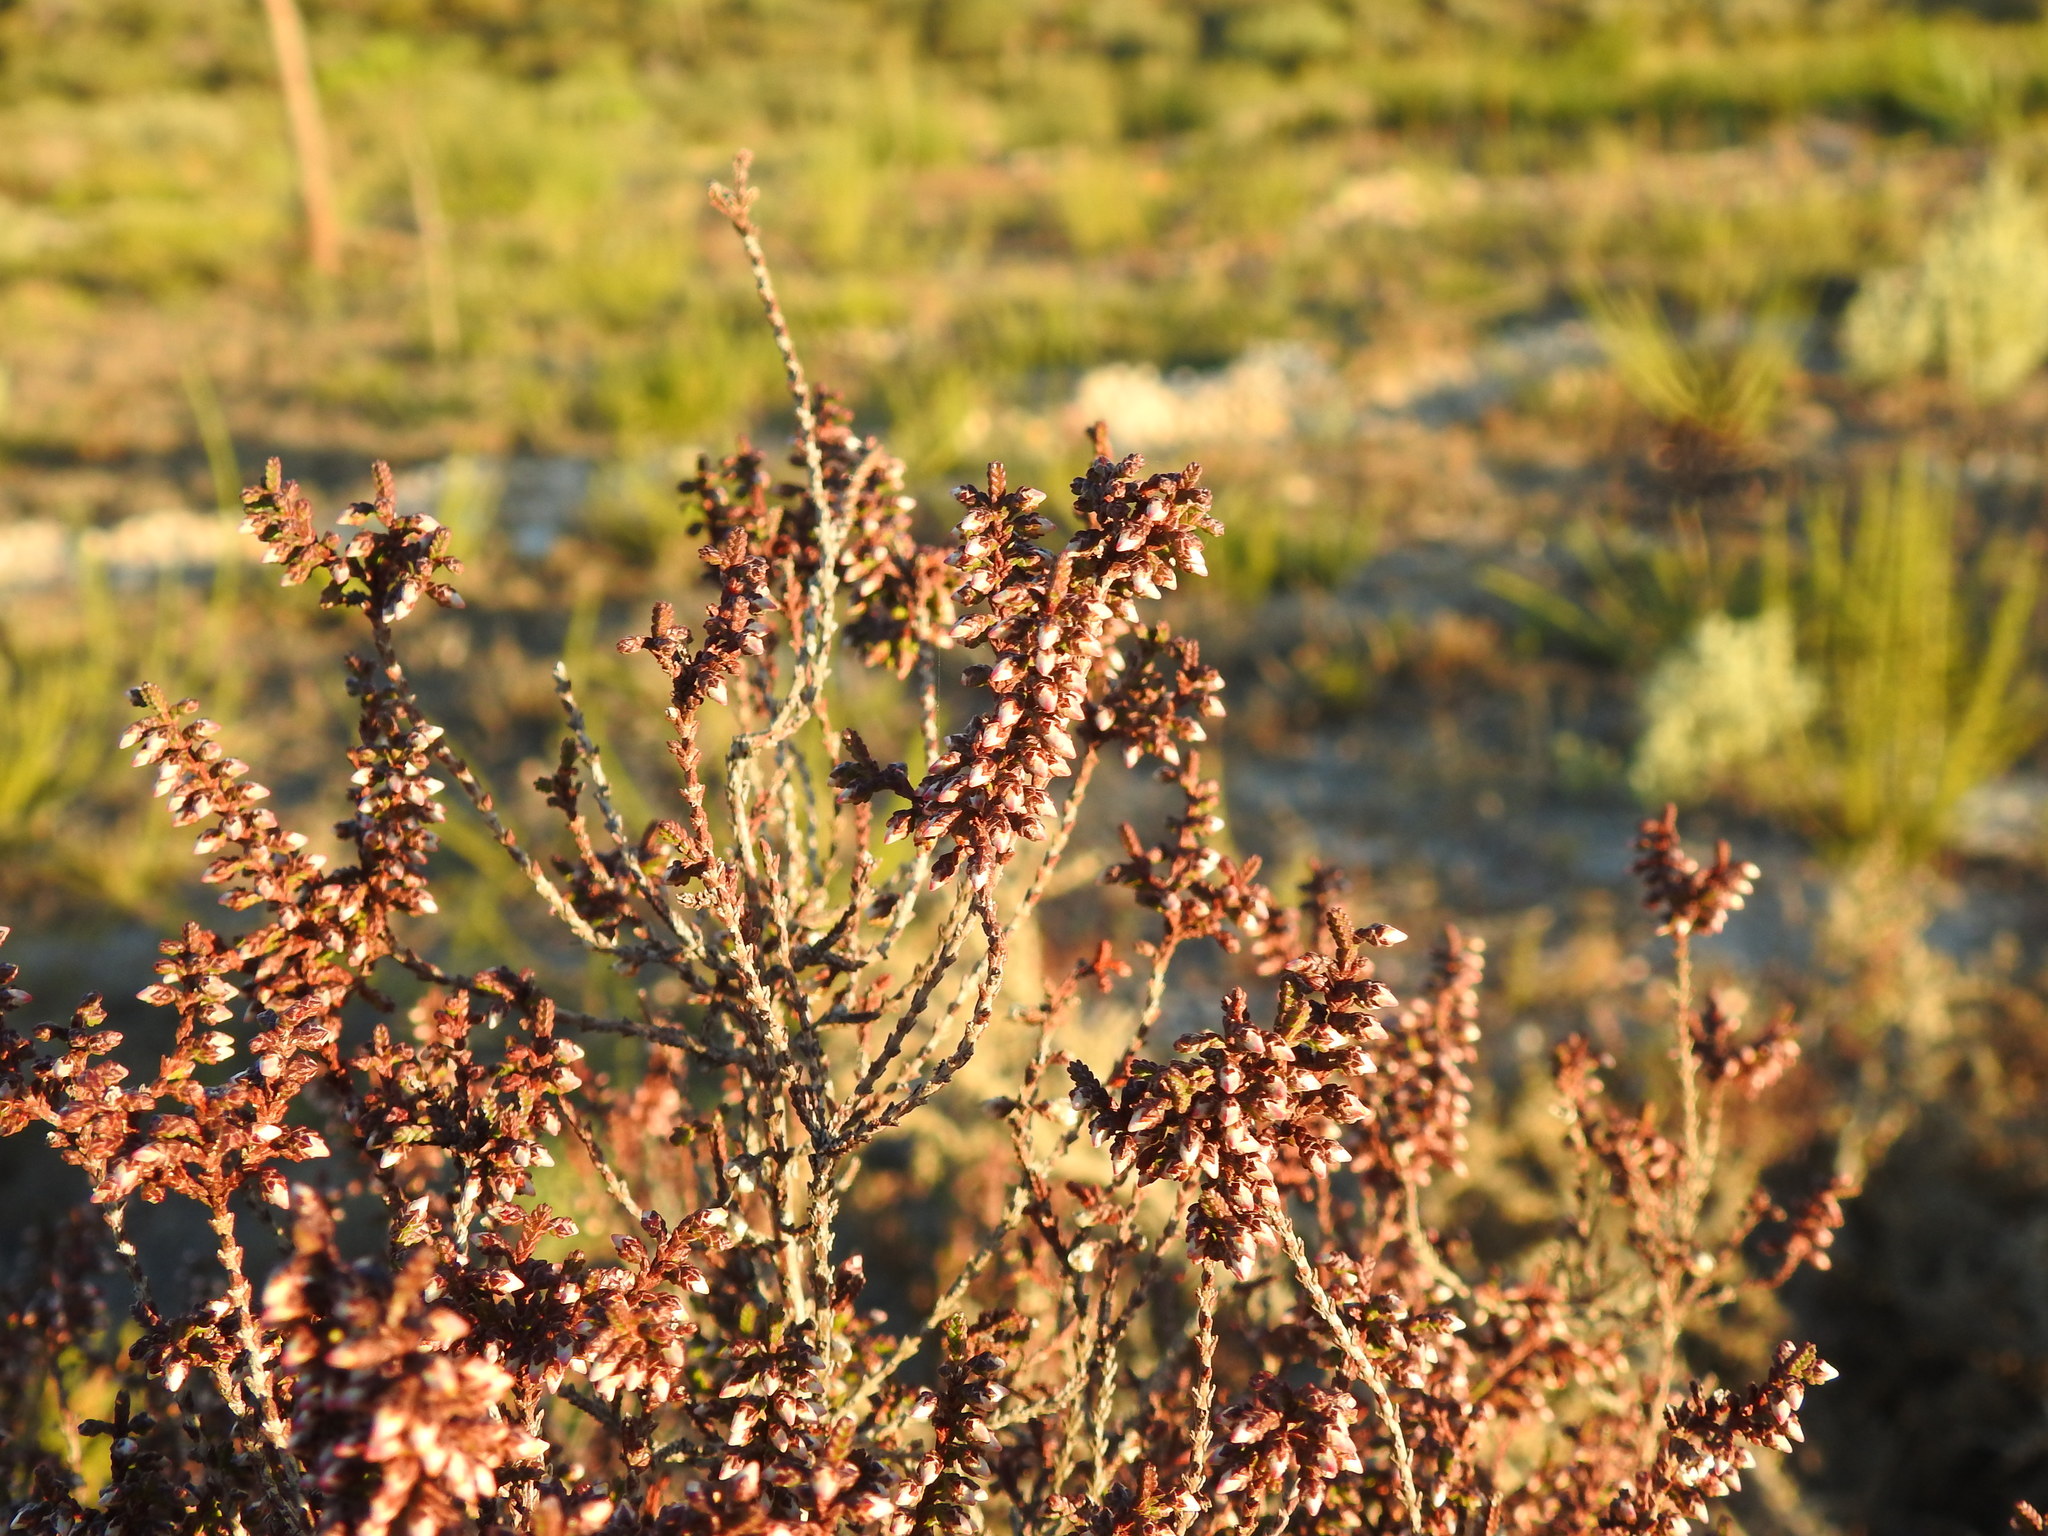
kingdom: Plantae
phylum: Tracheophyta
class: Magnoliopsida
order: Ericales
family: Ericaceae
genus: Calluna
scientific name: Calluna vulgaris
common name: Heather
